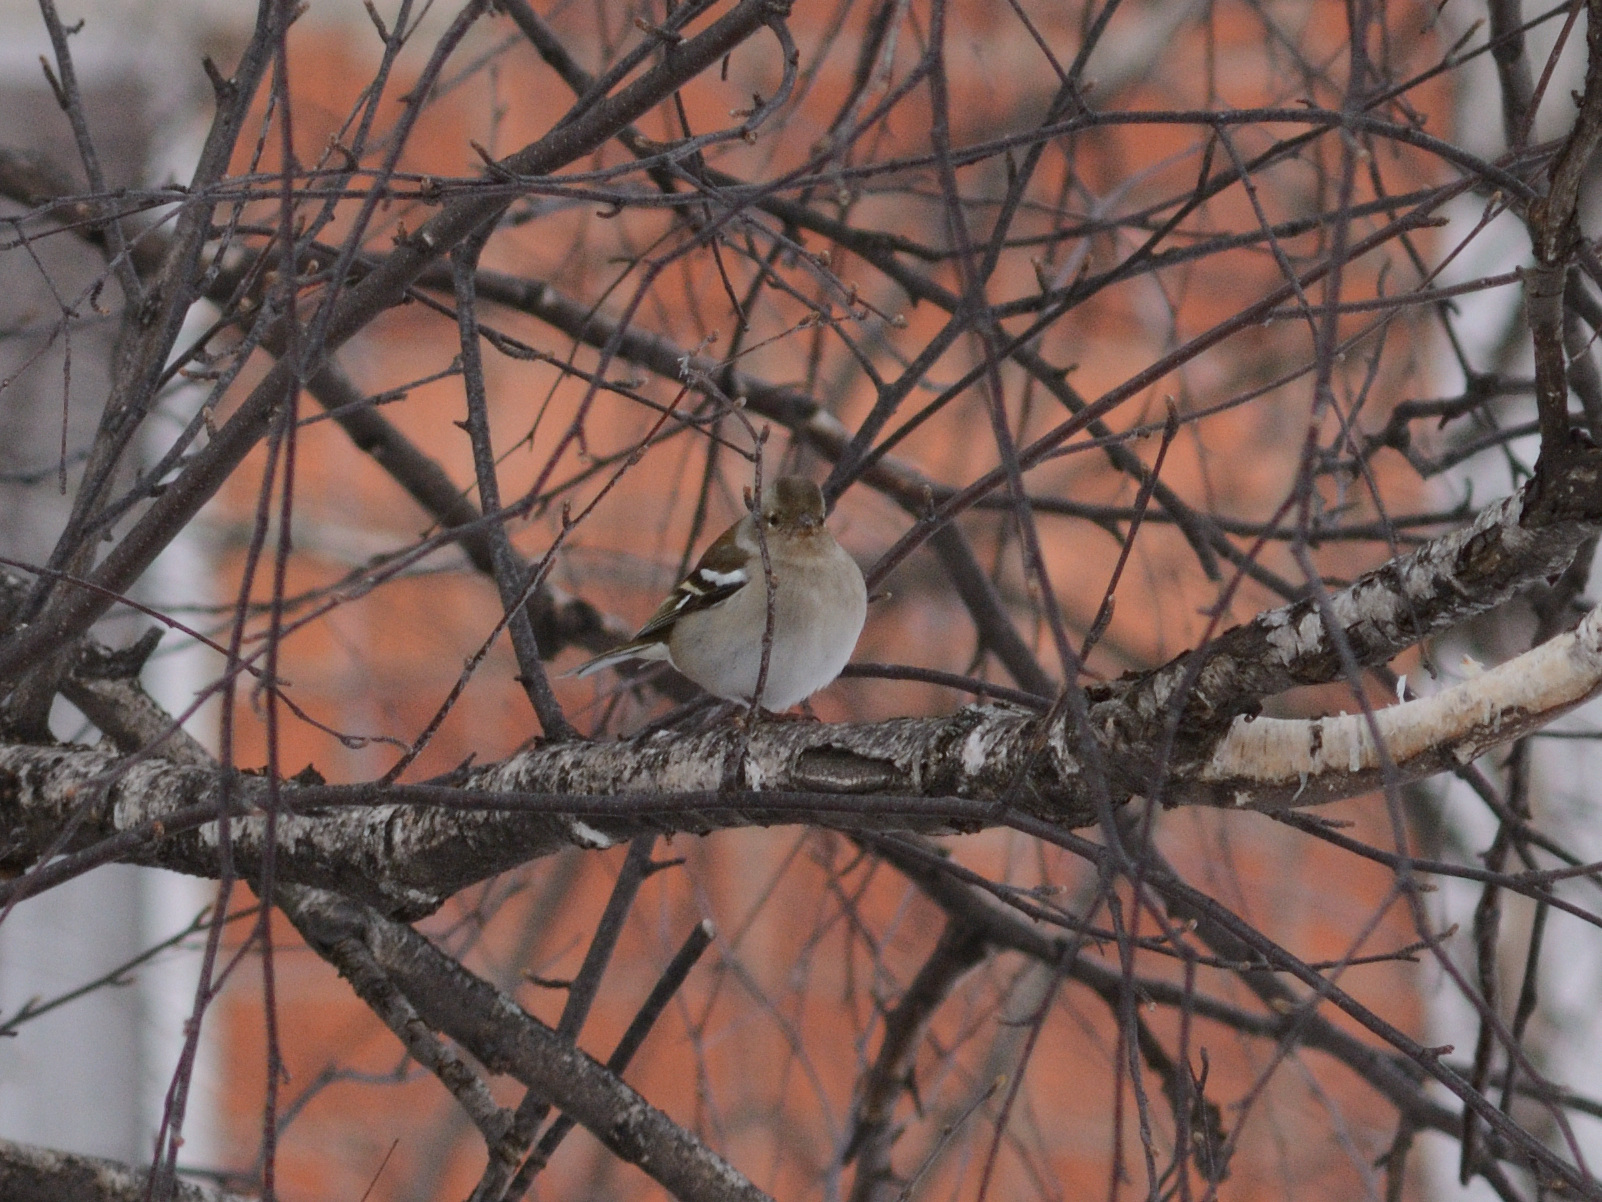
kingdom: Animalia
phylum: Chordata
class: Aves
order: Passeriformes
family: Fringillidae
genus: Fringilla
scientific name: Fringilla coelebs
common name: Common chaffinch
